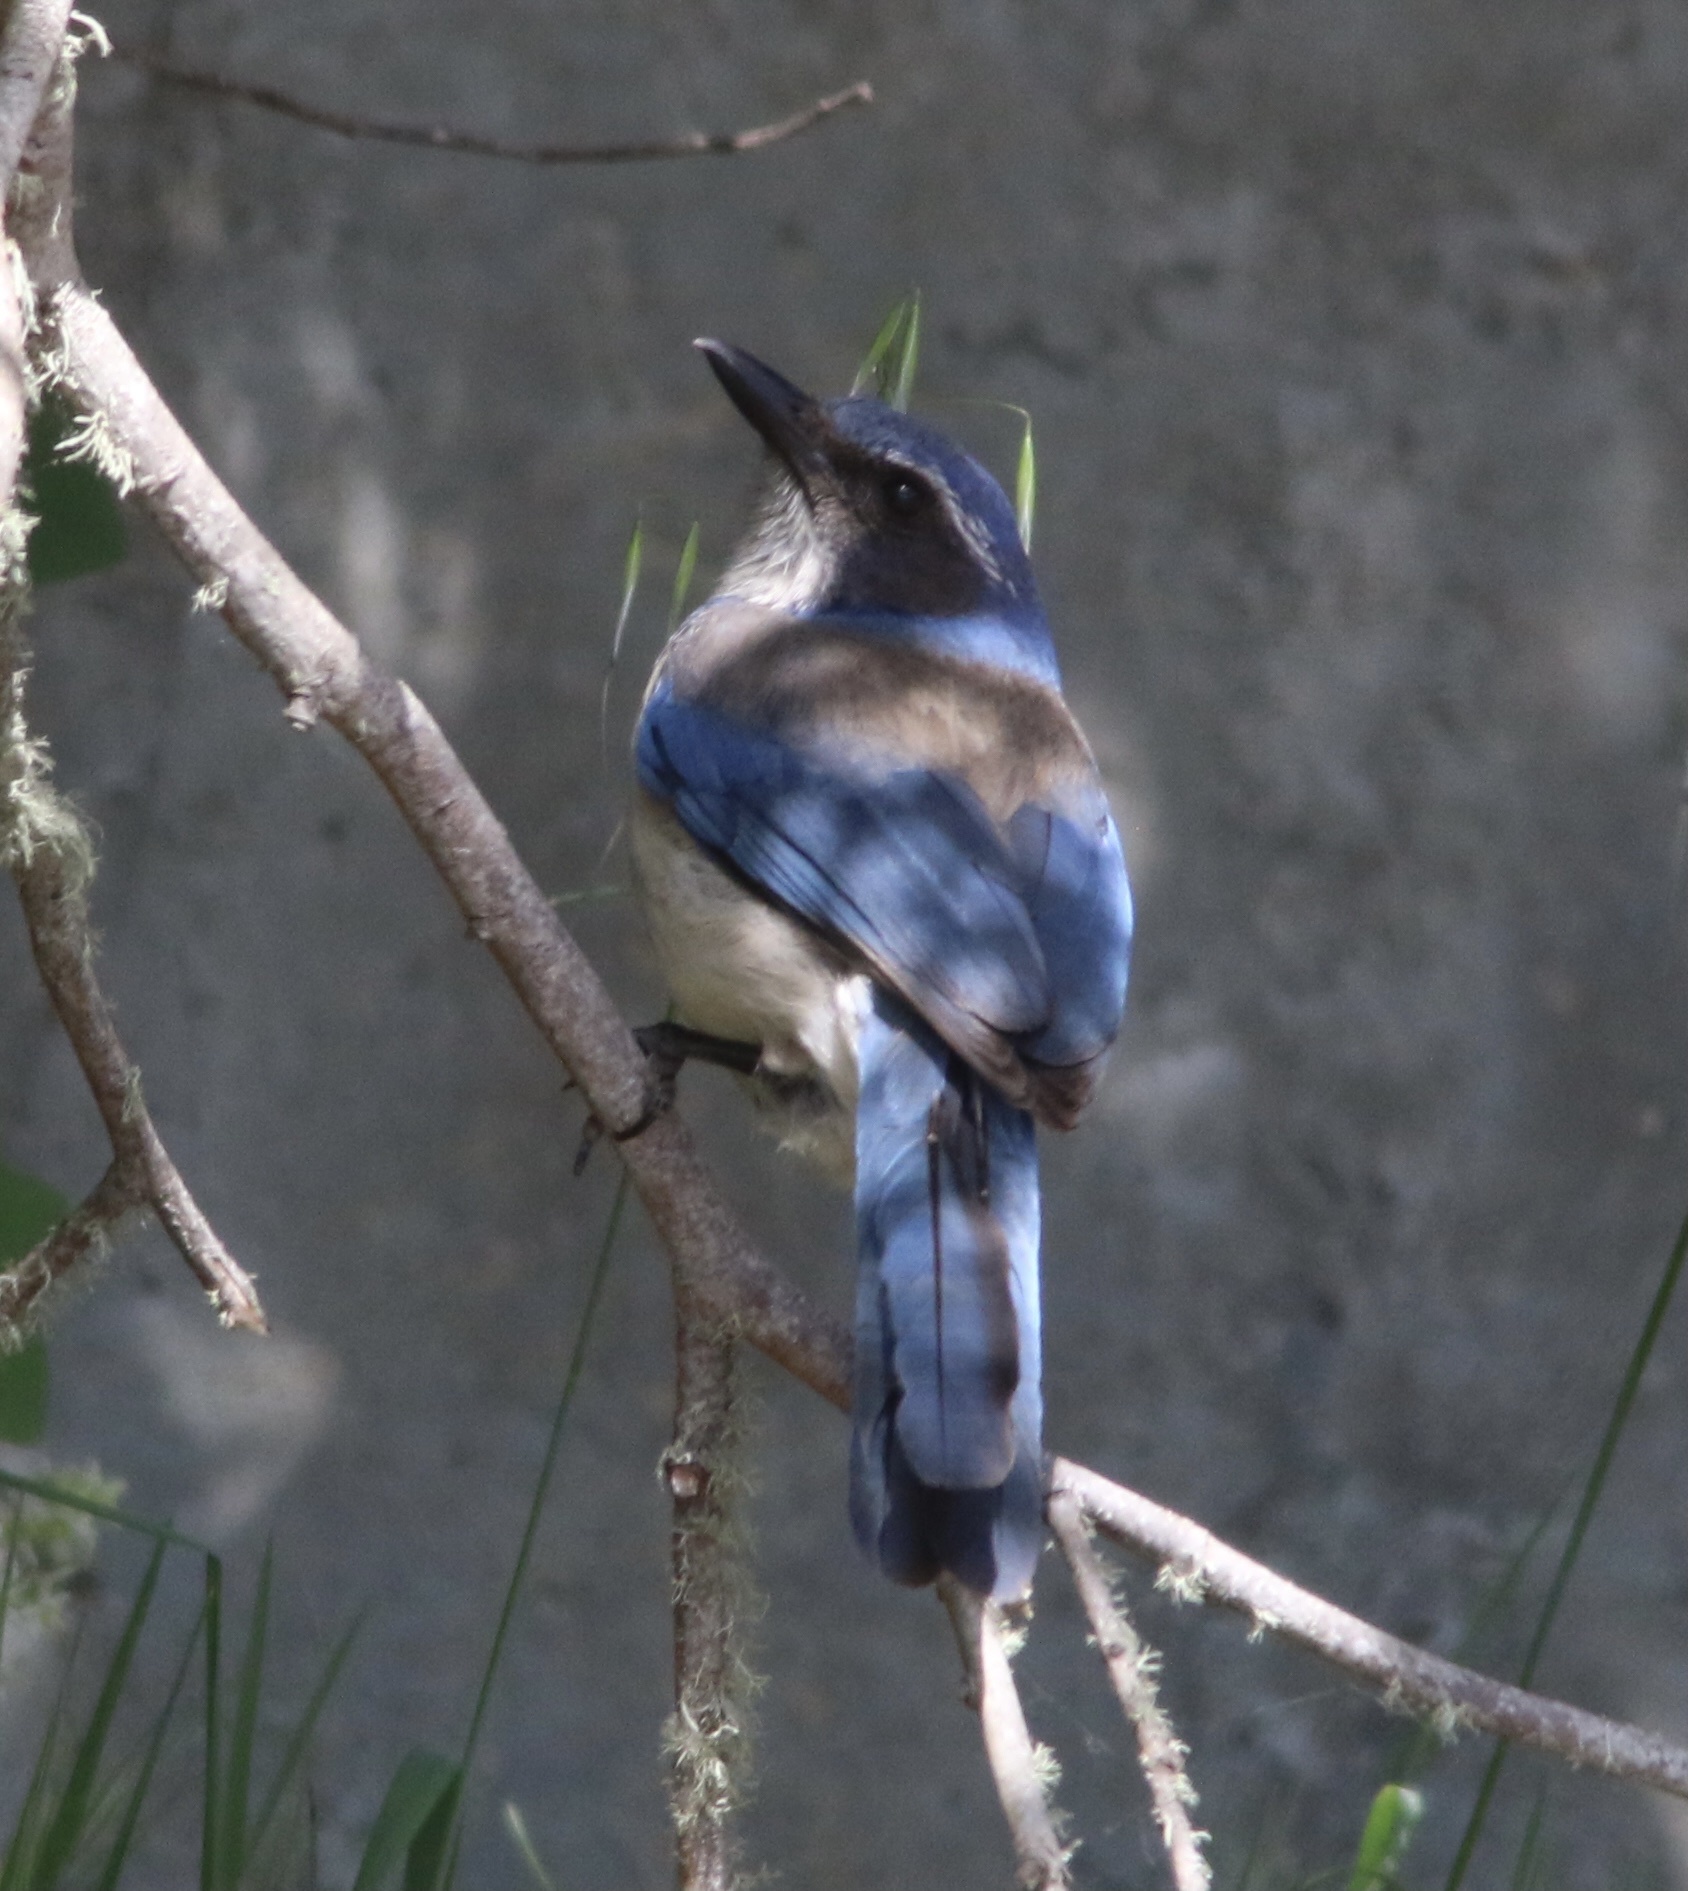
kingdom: Animalia
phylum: Chordata
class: Aves
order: Passeriformes
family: Corvidae
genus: Aphelocoma
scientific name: Aphelocoma californica
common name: California scrub-jay
